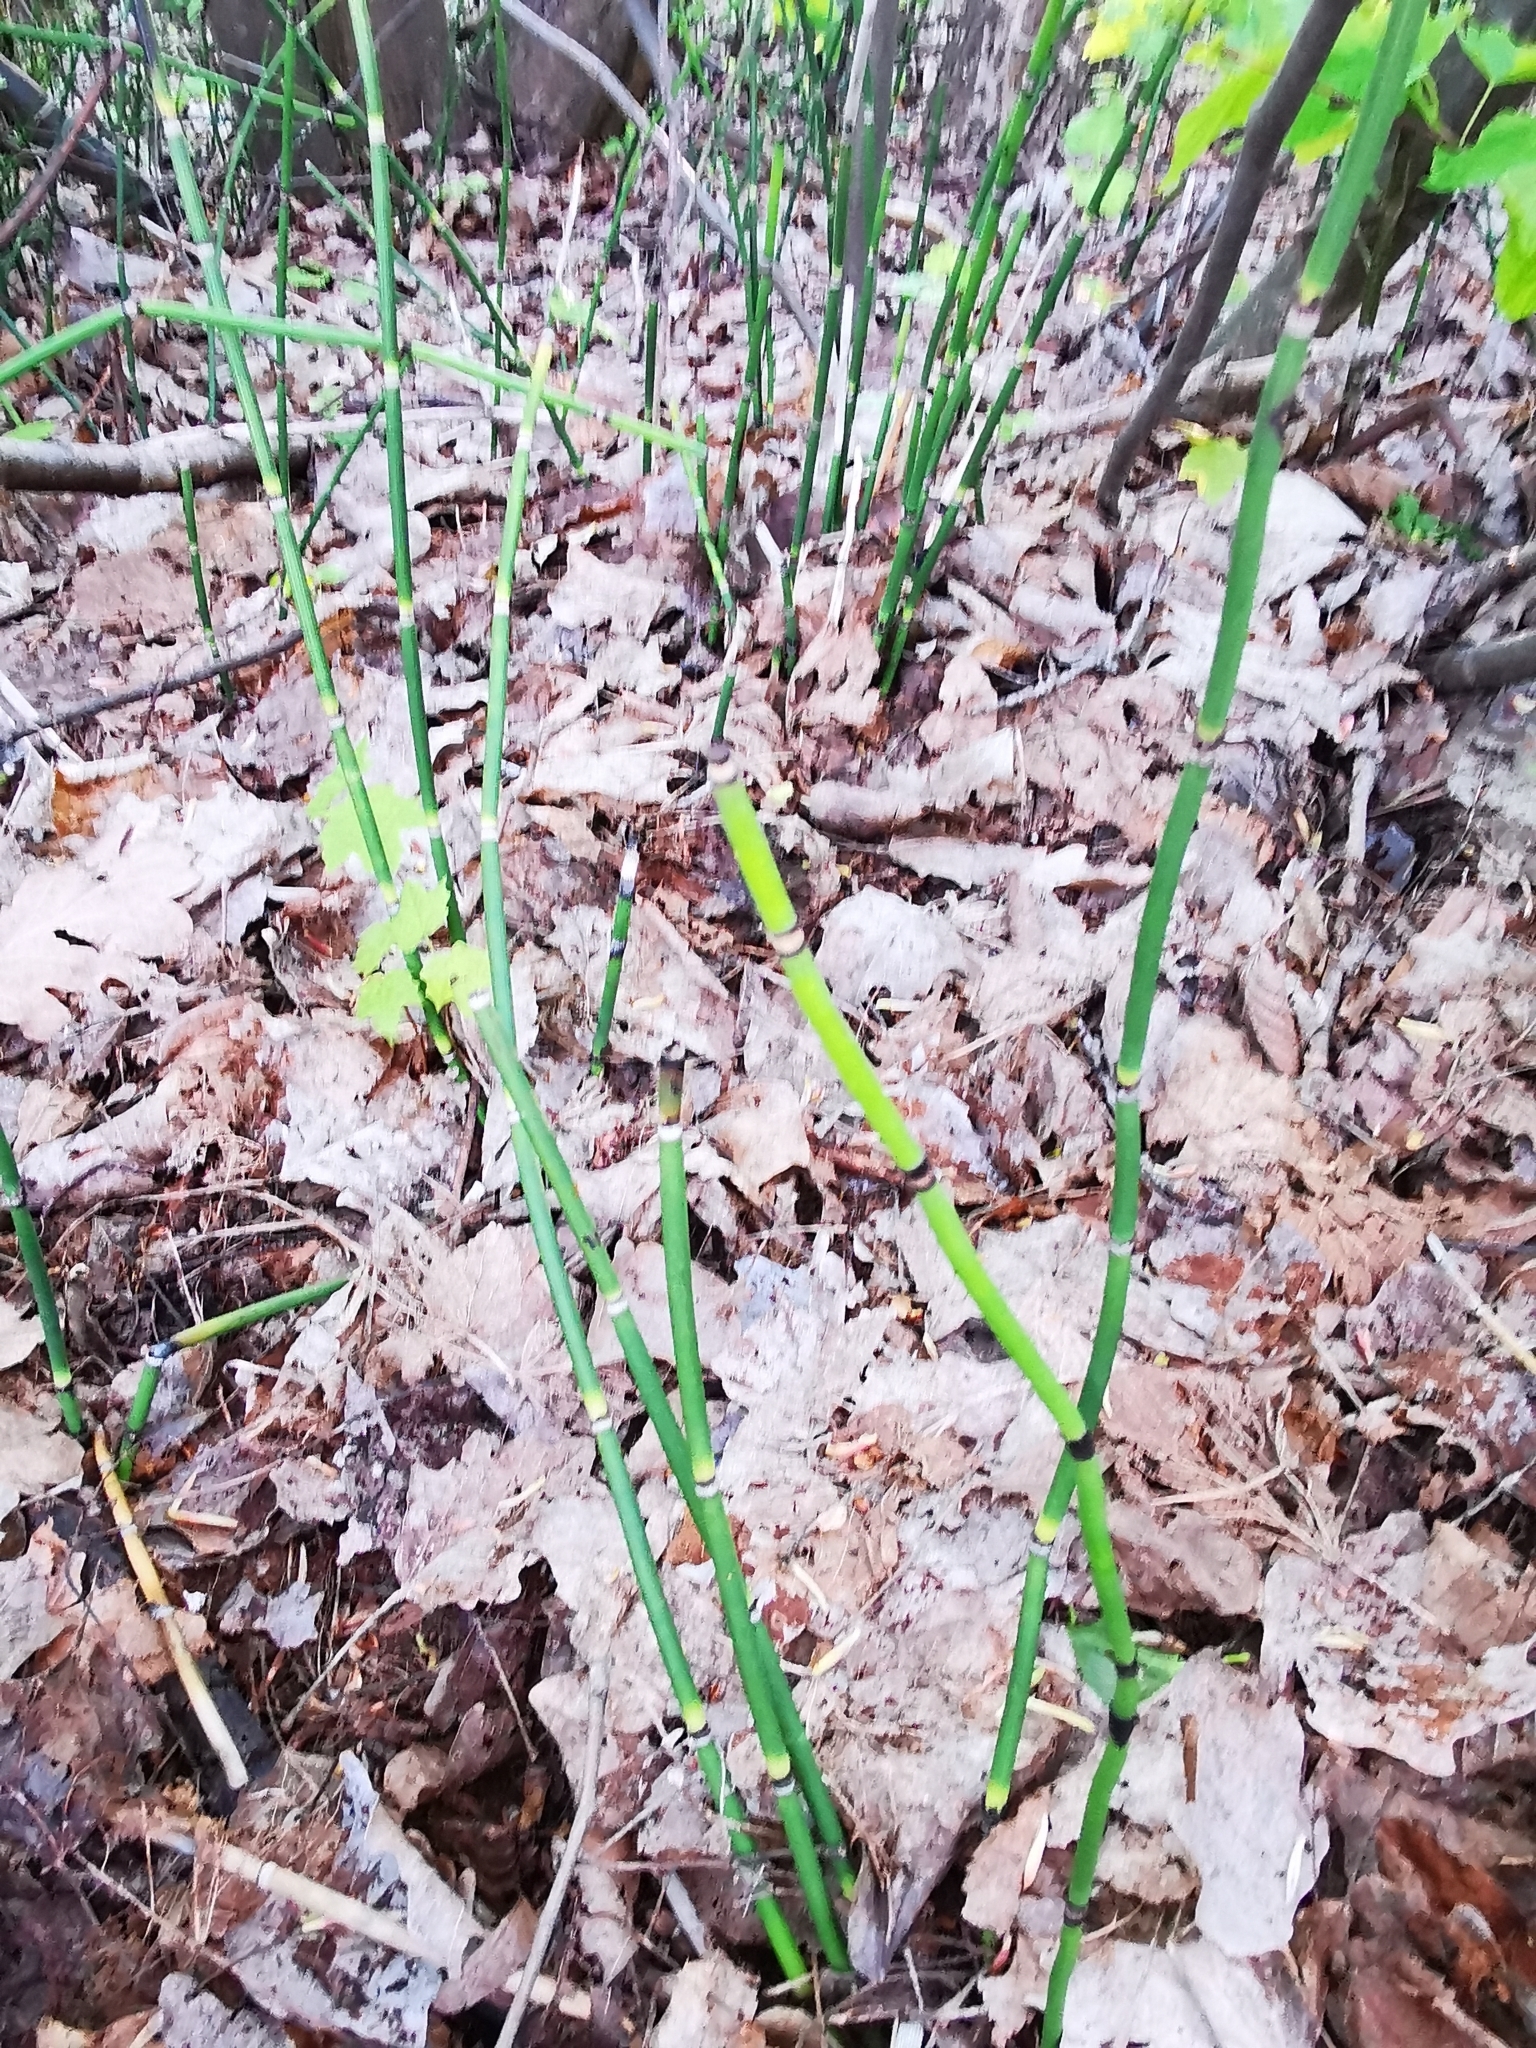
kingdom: Plantae
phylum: Tracheophyta
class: Polypodiopsida
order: Equisetales
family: Equisetaceae
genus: Equisetum
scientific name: Equisetum hyemale
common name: Rough horsetail
